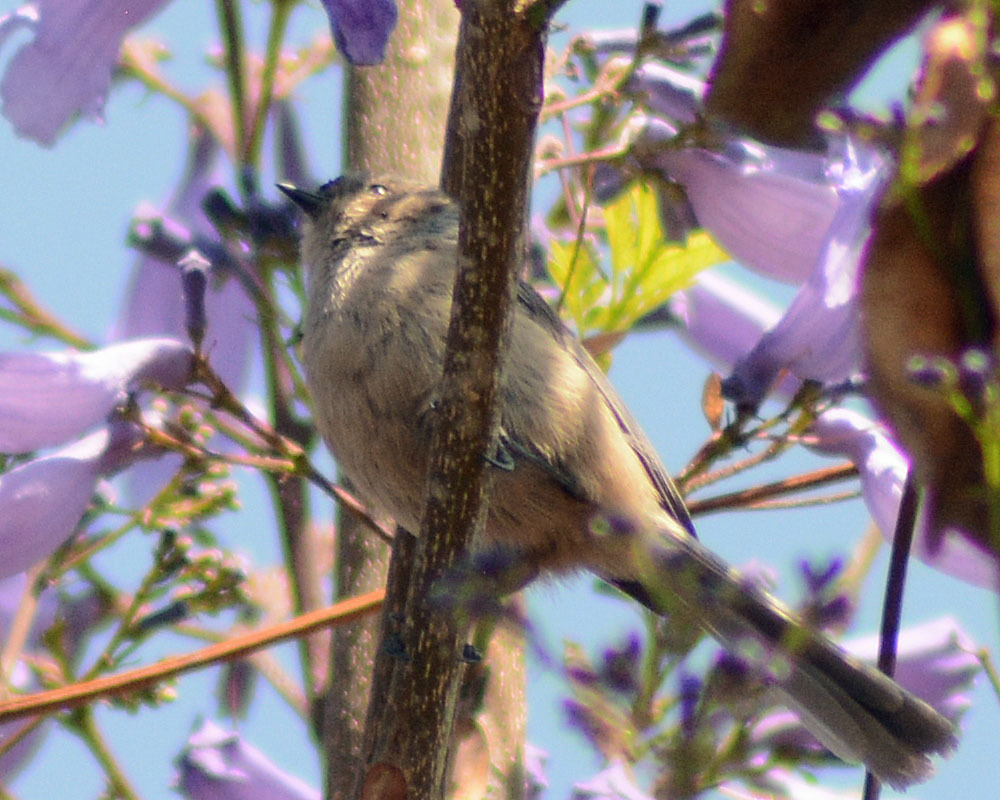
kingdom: Animalia
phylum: Chordata
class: Aves
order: Passeriformes
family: Aegithalidae
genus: Psaltriparus
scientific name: Psaltriparus minimus
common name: American bushtit
